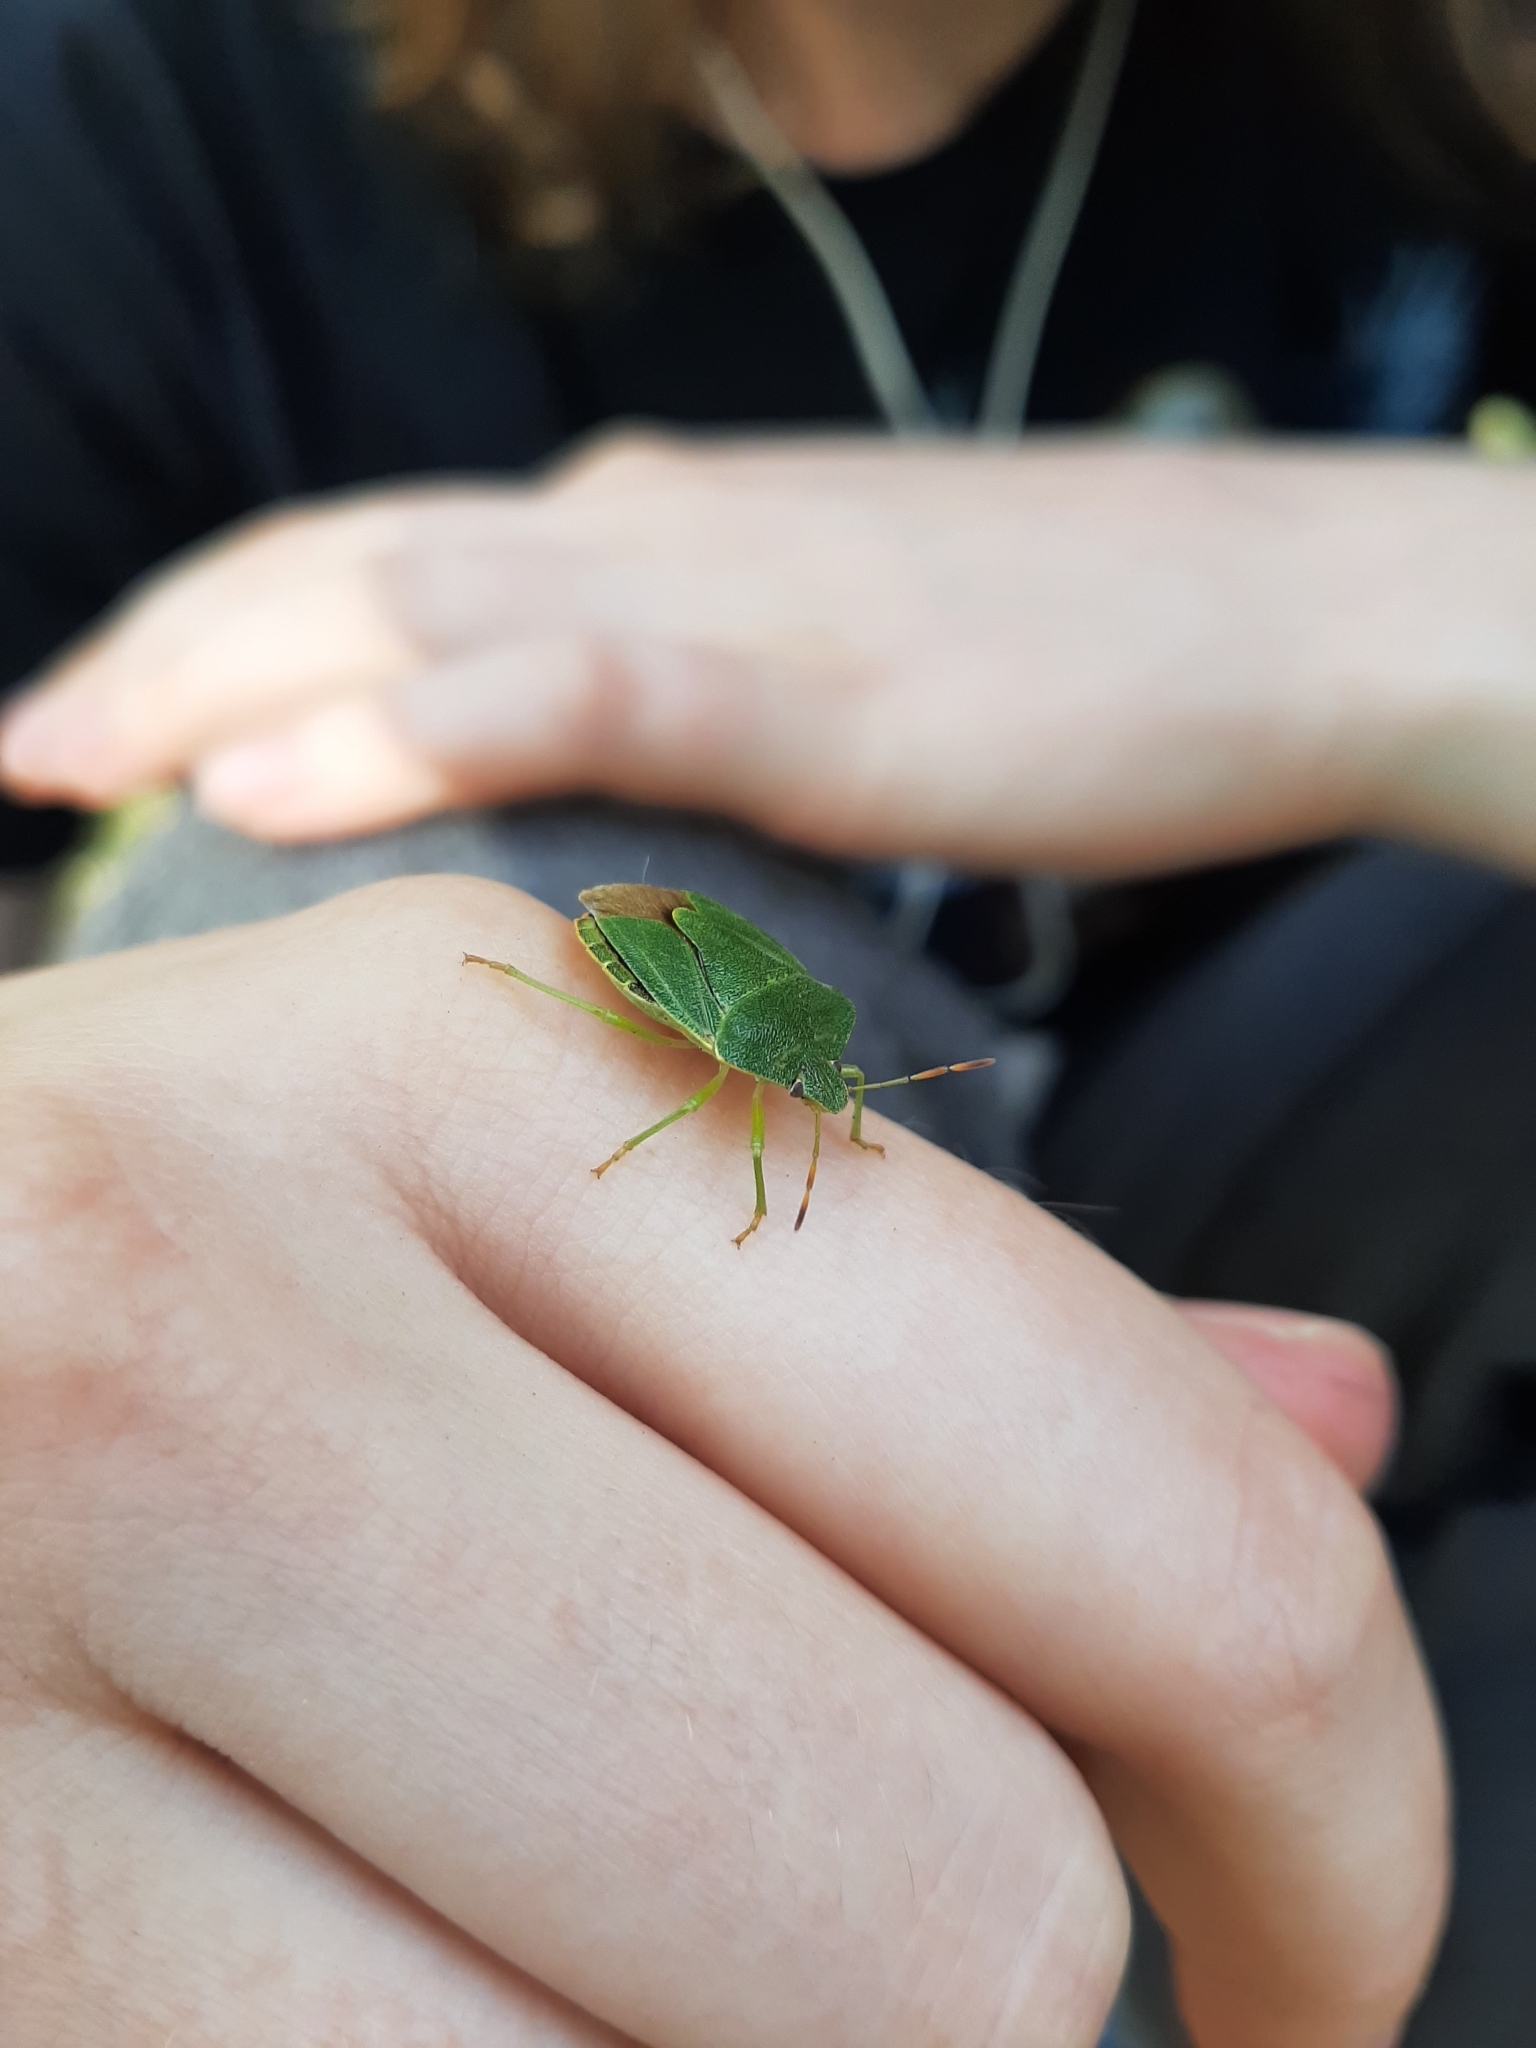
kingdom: Animalia
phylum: Arthropoda
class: Insecta
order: Hemiptera
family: Pentatomidae
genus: Palomena
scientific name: Palomena prasina
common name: Green shieldbug
